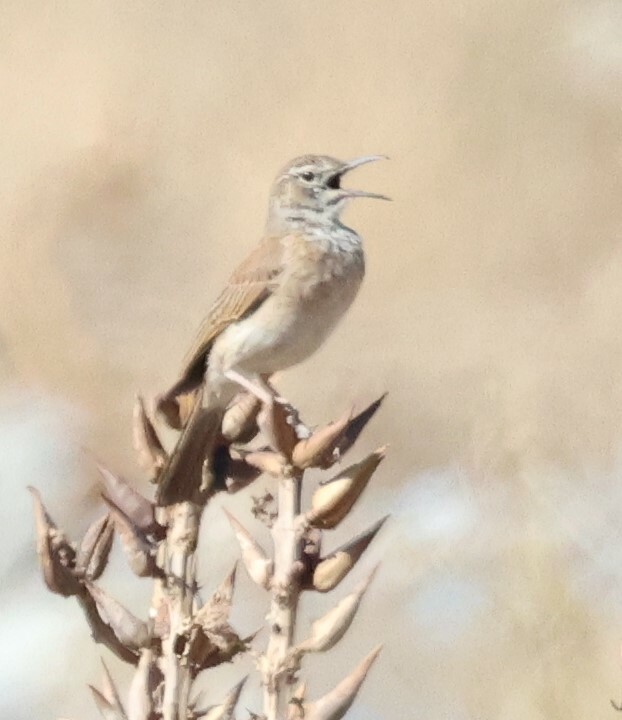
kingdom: Animalia
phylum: Chordata
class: Aves
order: Passeriformes
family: Alaudidae
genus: Certhilauda
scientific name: Certhilauda subcoronata
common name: Karoo long-billed lark
